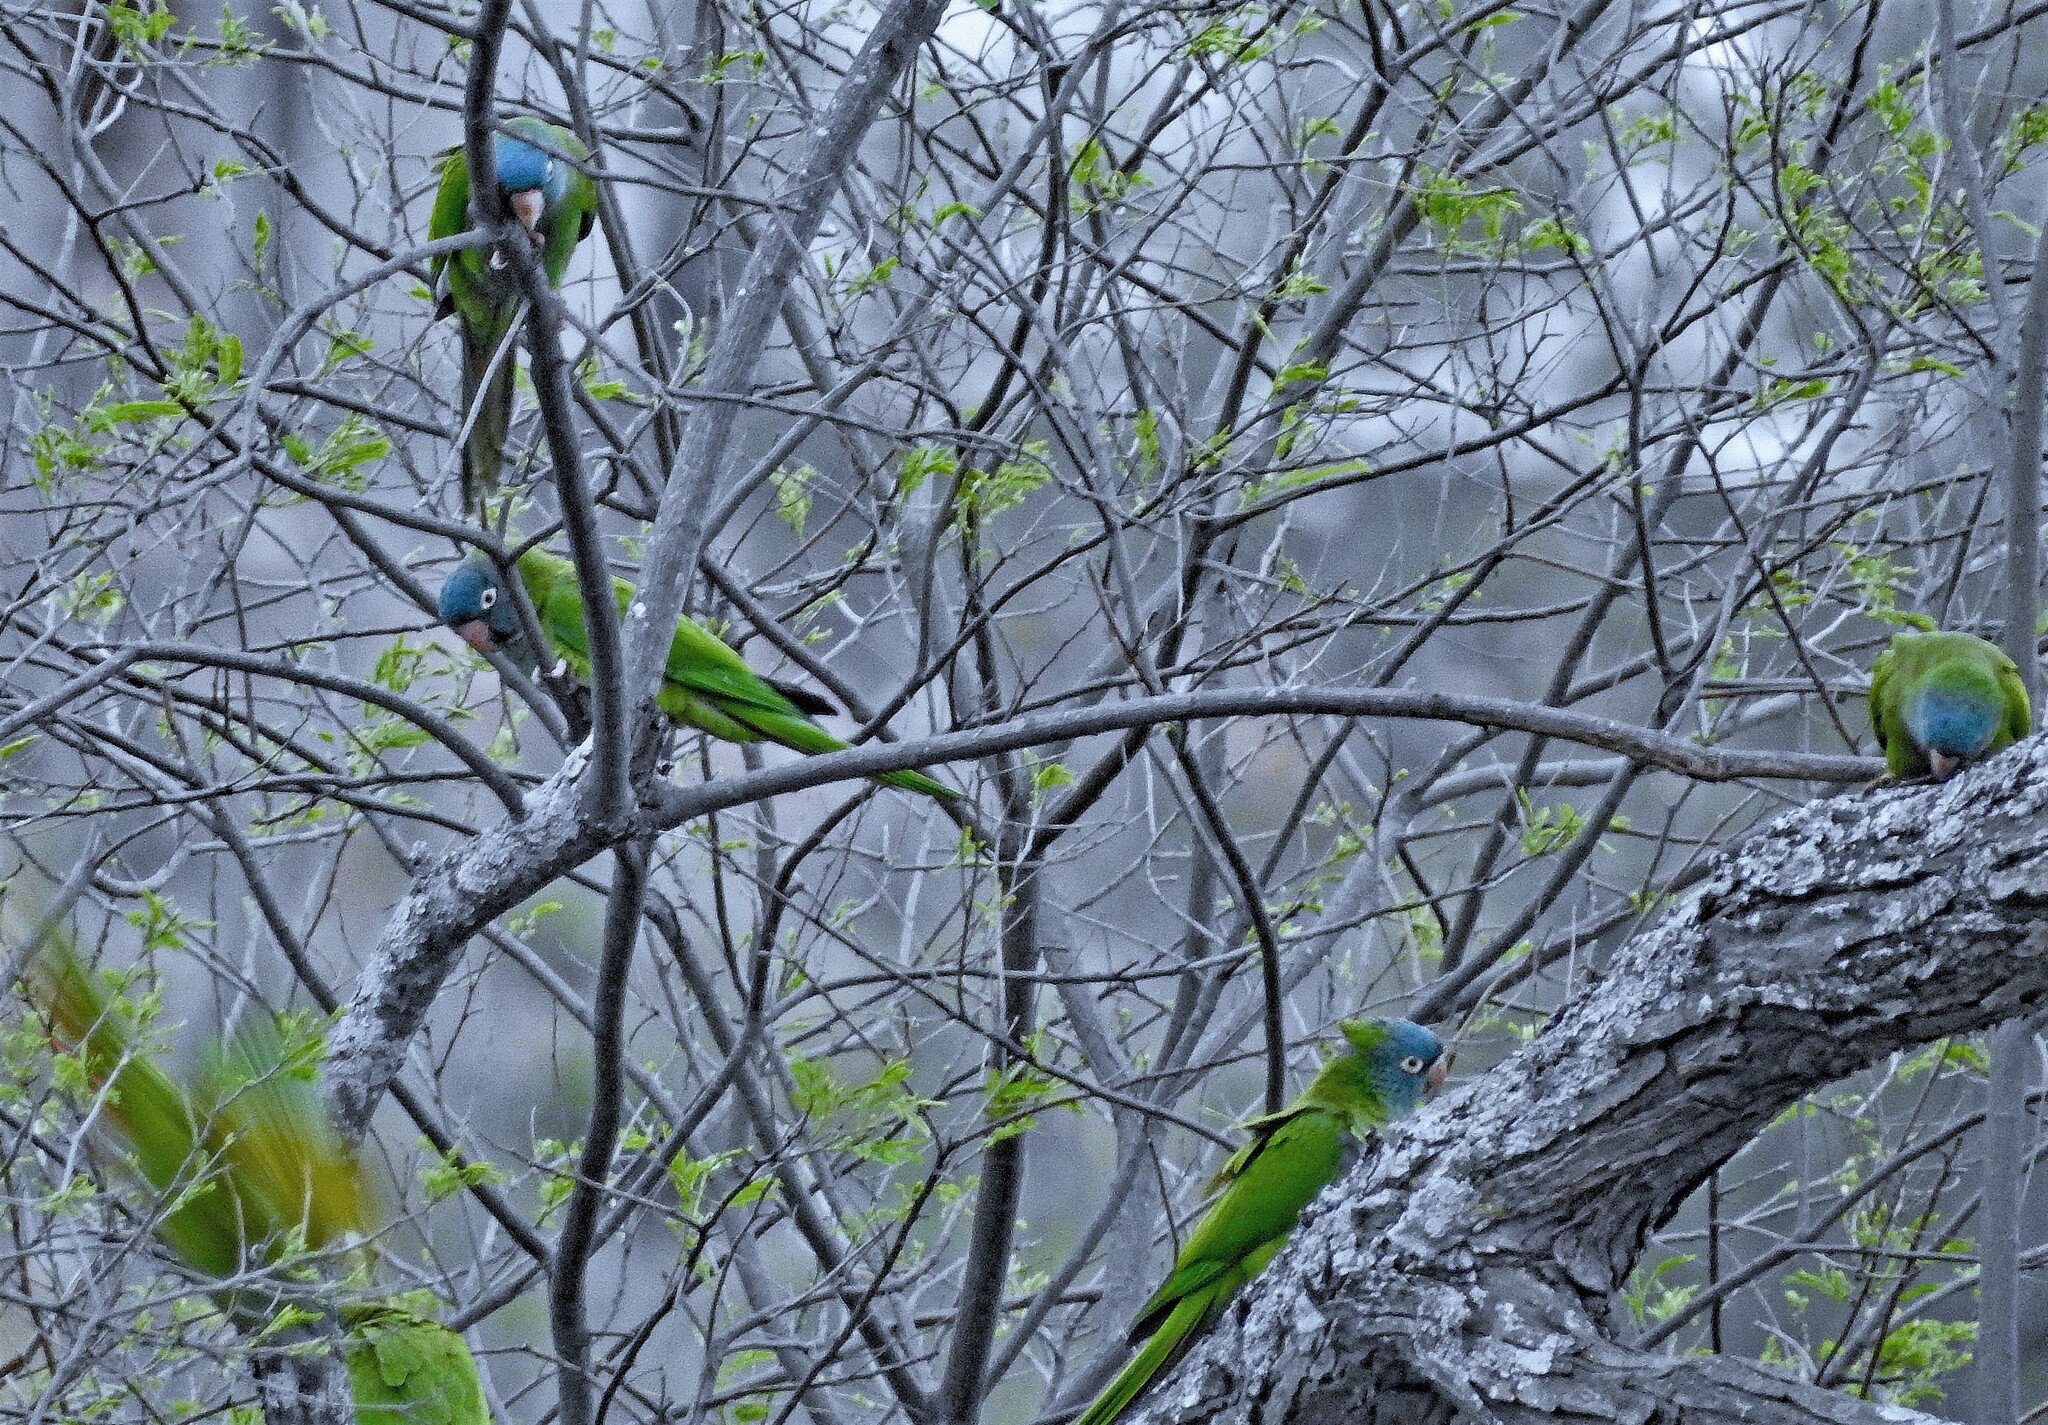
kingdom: Animalia
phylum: Chordata
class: Aves
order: Psittaciformes
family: Psittacidae
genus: Aratinga
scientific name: Aratinga acuticaudata
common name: Blue-crowned parakeet
